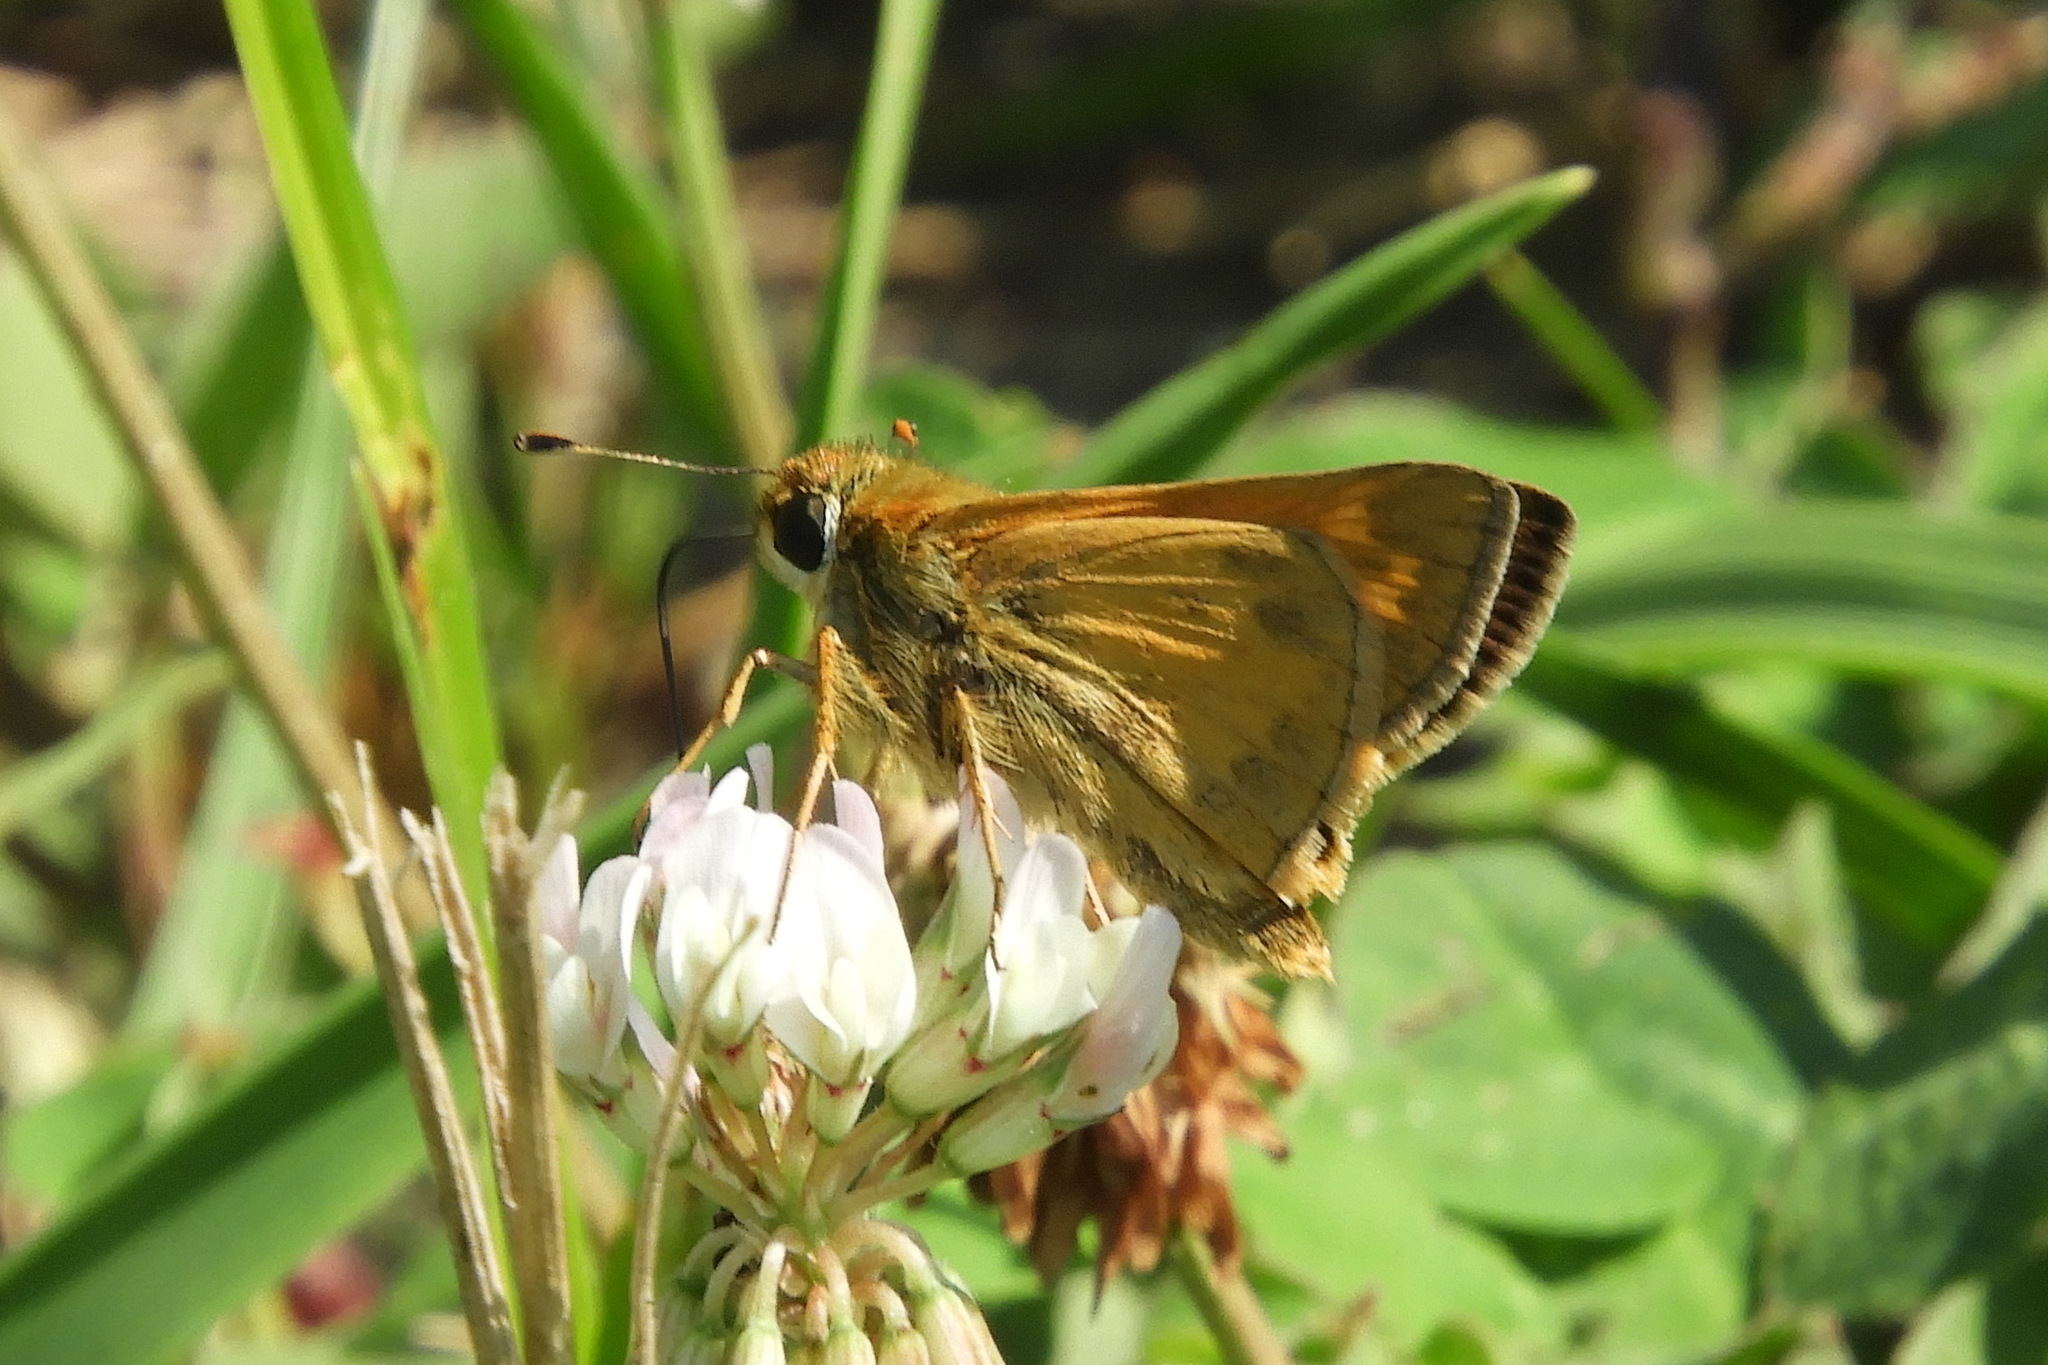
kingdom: Animalia
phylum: Arthropoda
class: Insecta
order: Lepidoptera
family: Hesperiidae
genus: Atalopedes
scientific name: Atalopedes
